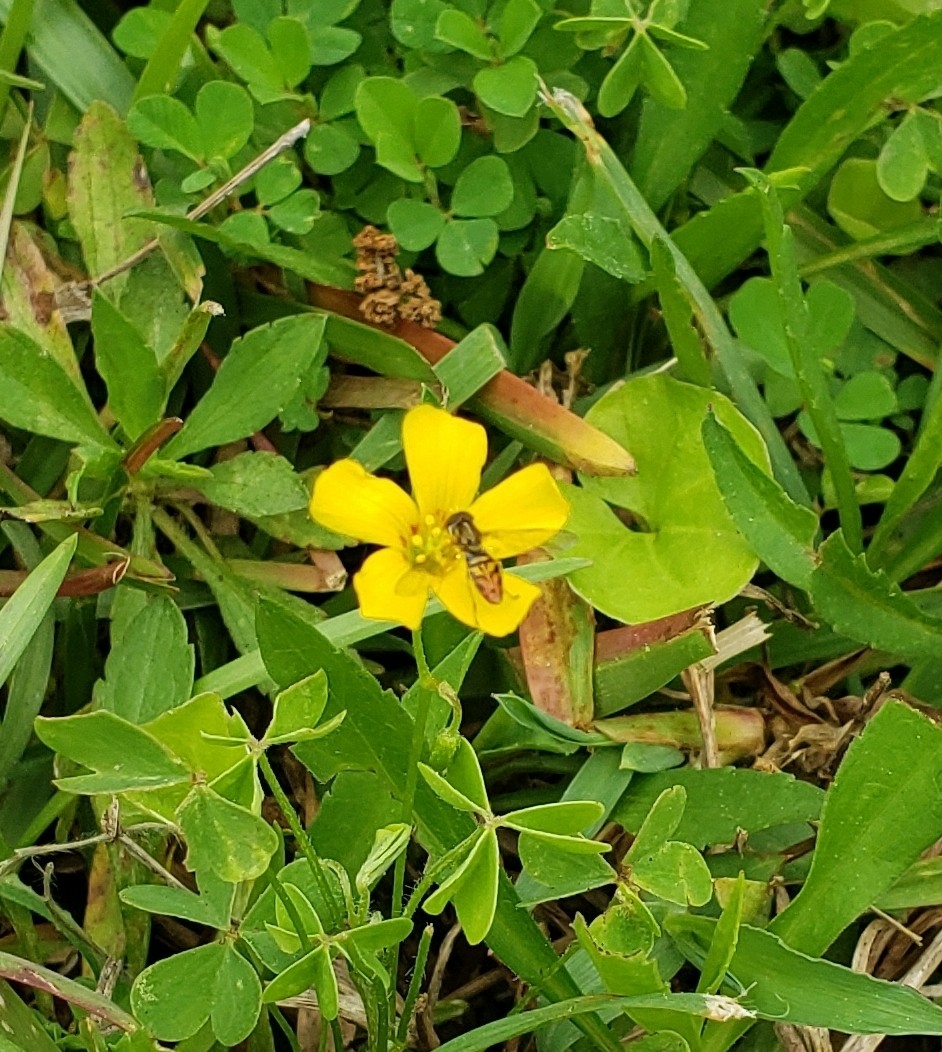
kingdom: Animalia
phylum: Arthropoda
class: Insecta
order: Diptera
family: Syrphidae
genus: Toxomerus
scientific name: Toxomerus marginatus
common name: Syrphid fly
